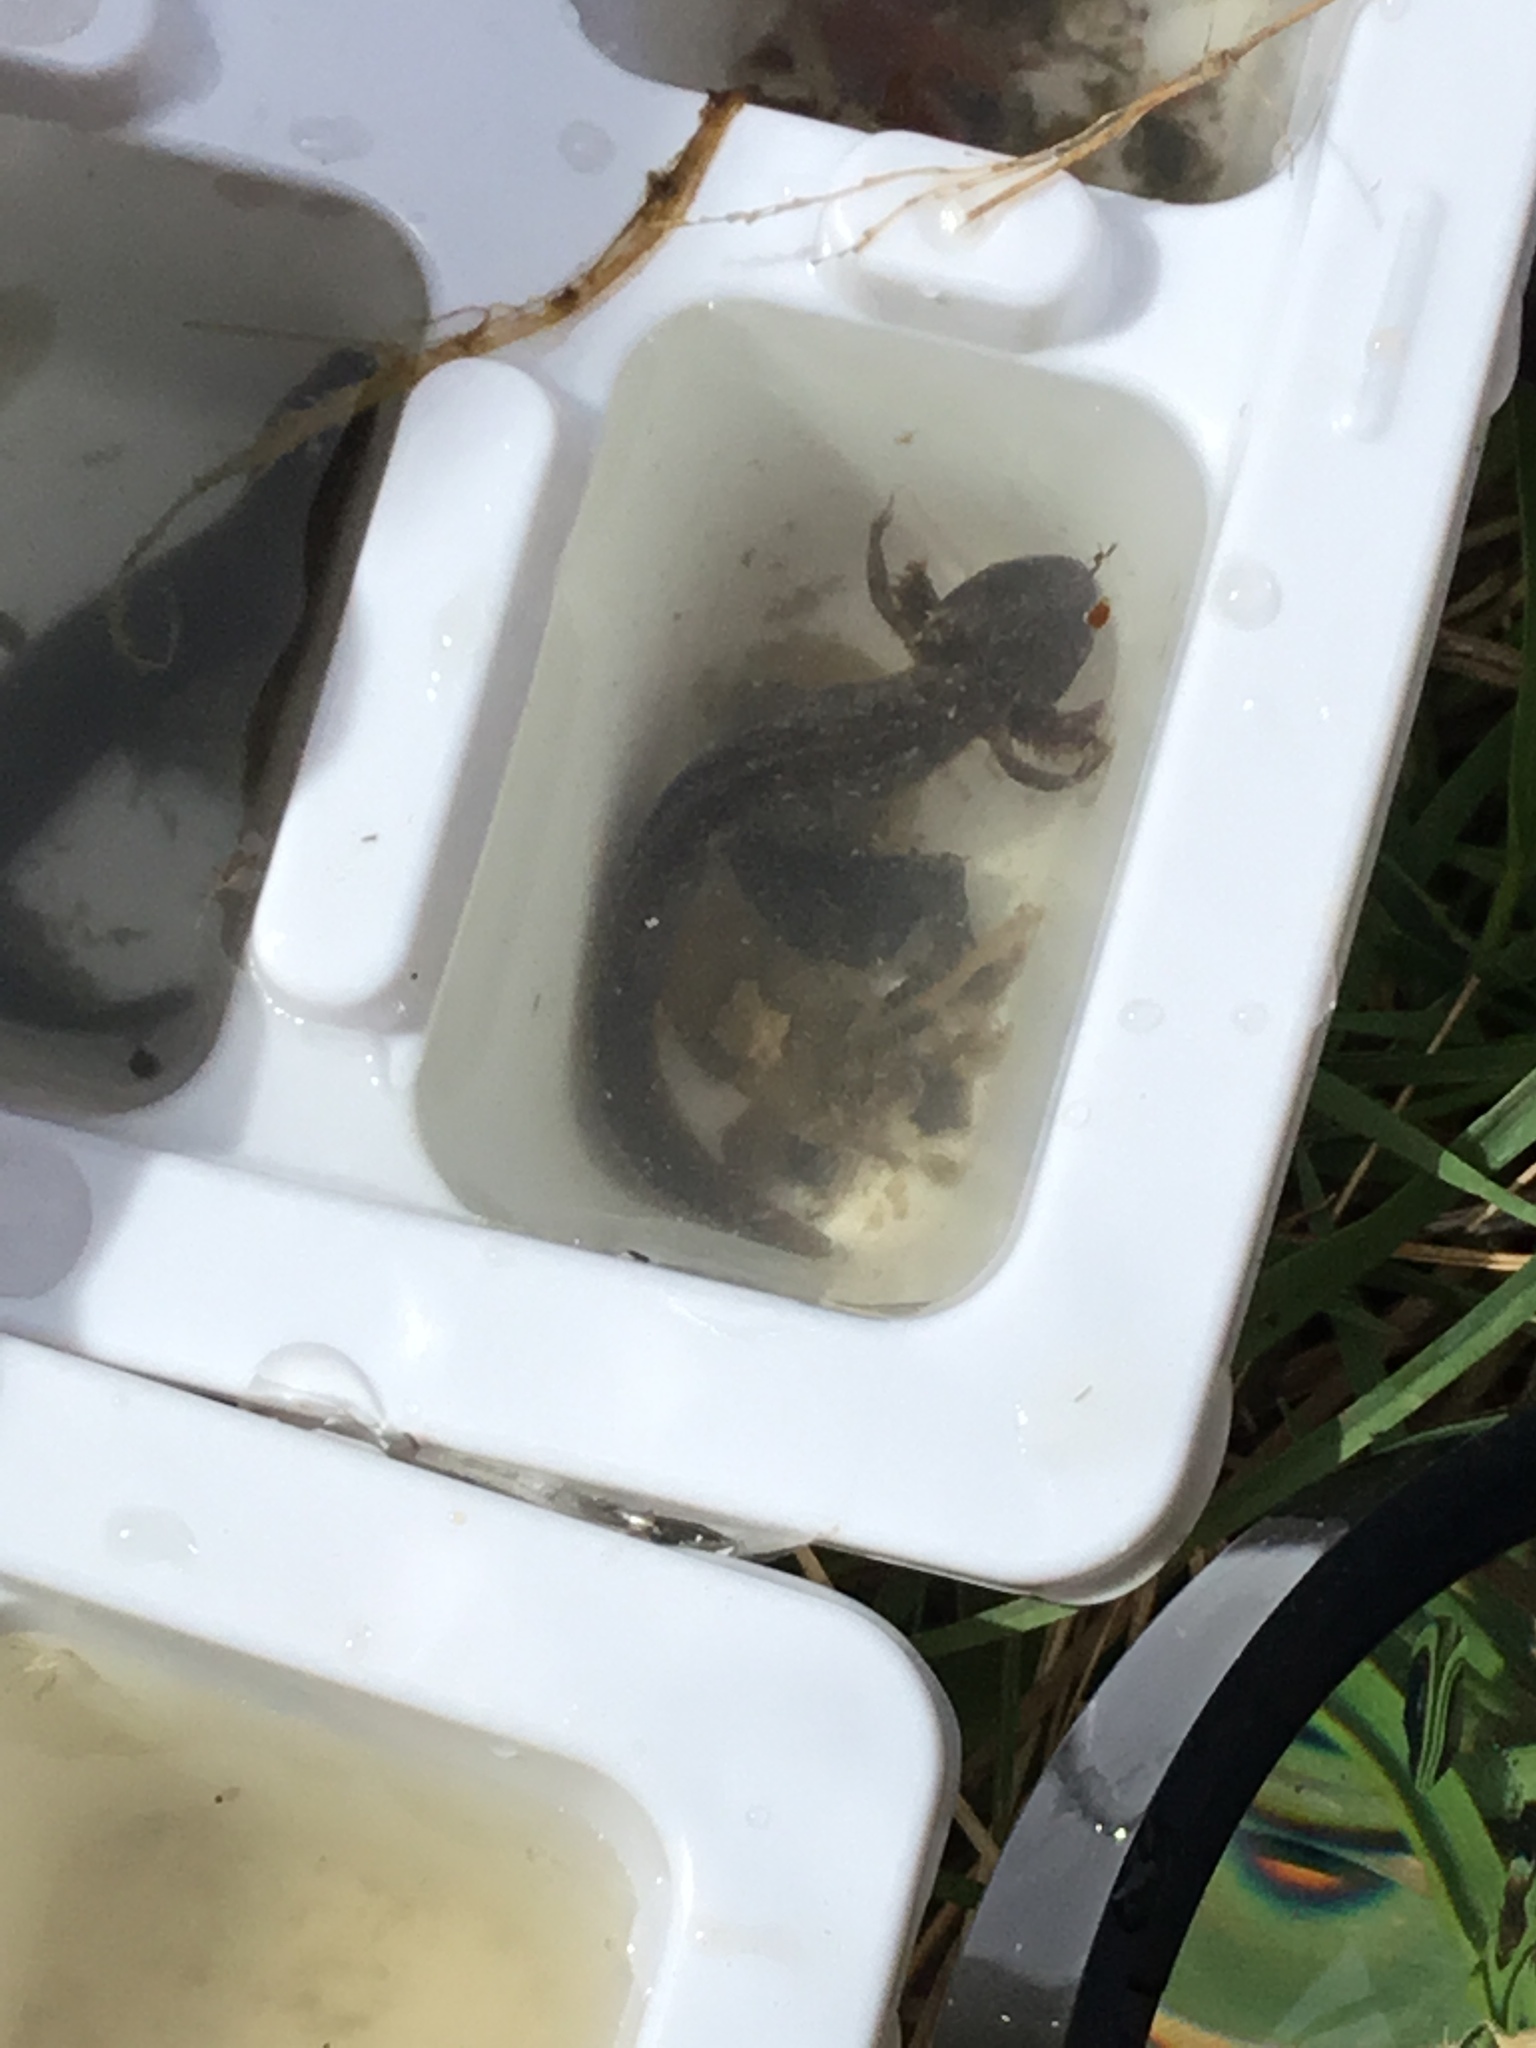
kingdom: Animalia
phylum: Chordata
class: Amphibia
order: Caudata
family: Ambystomatidae
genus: Ambystoma
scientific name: Ambystoma
